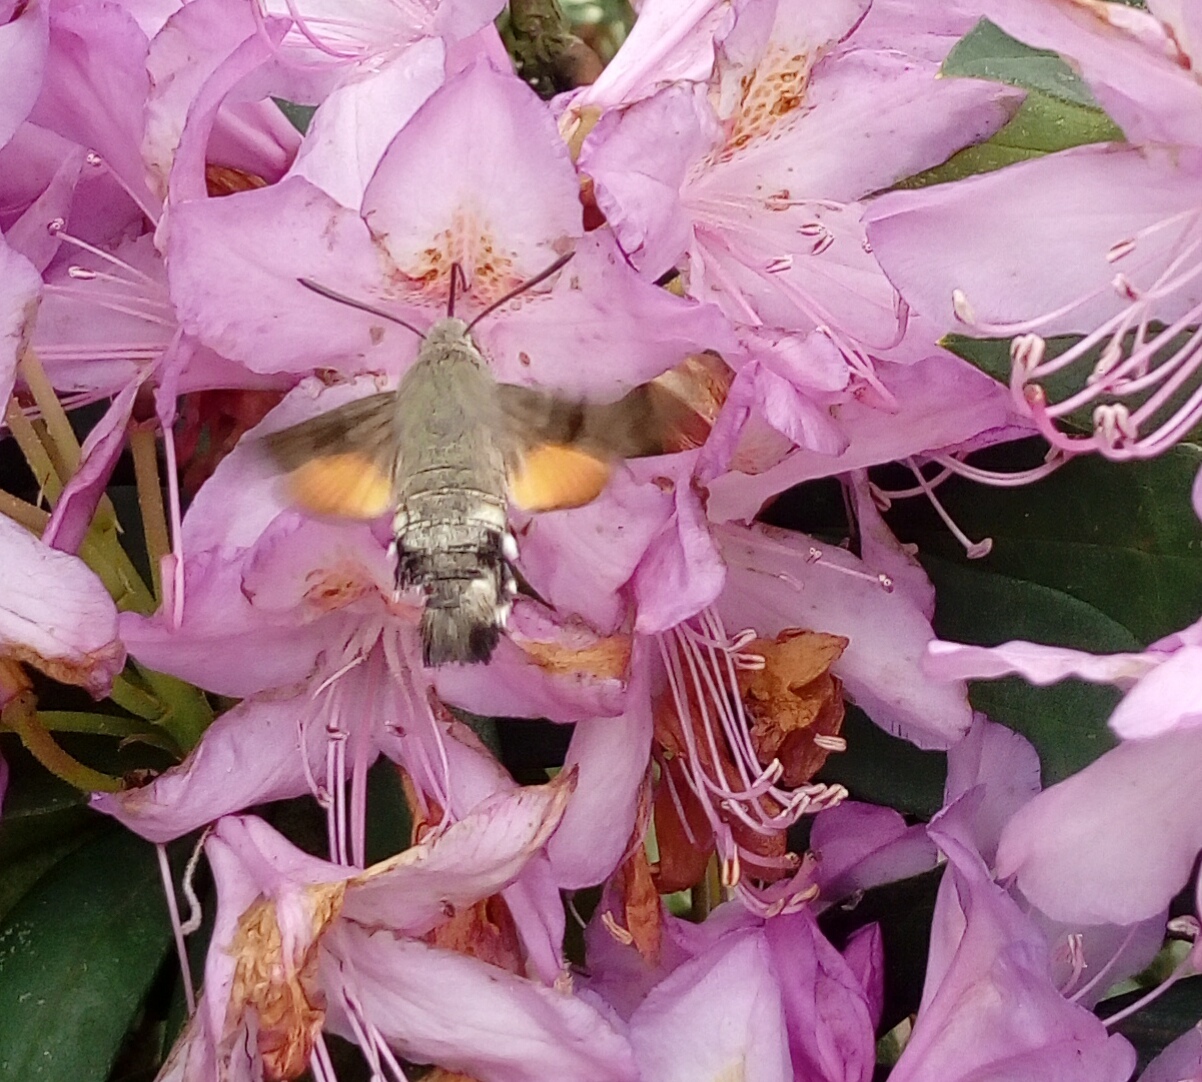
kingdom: Animalia
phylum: Arthropoda
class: Insecta
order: Lepidoptera
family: Sphingidae
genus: Macroglossum
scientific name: Macroglossum stellatarum
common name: Humming-bird hawk-moth
